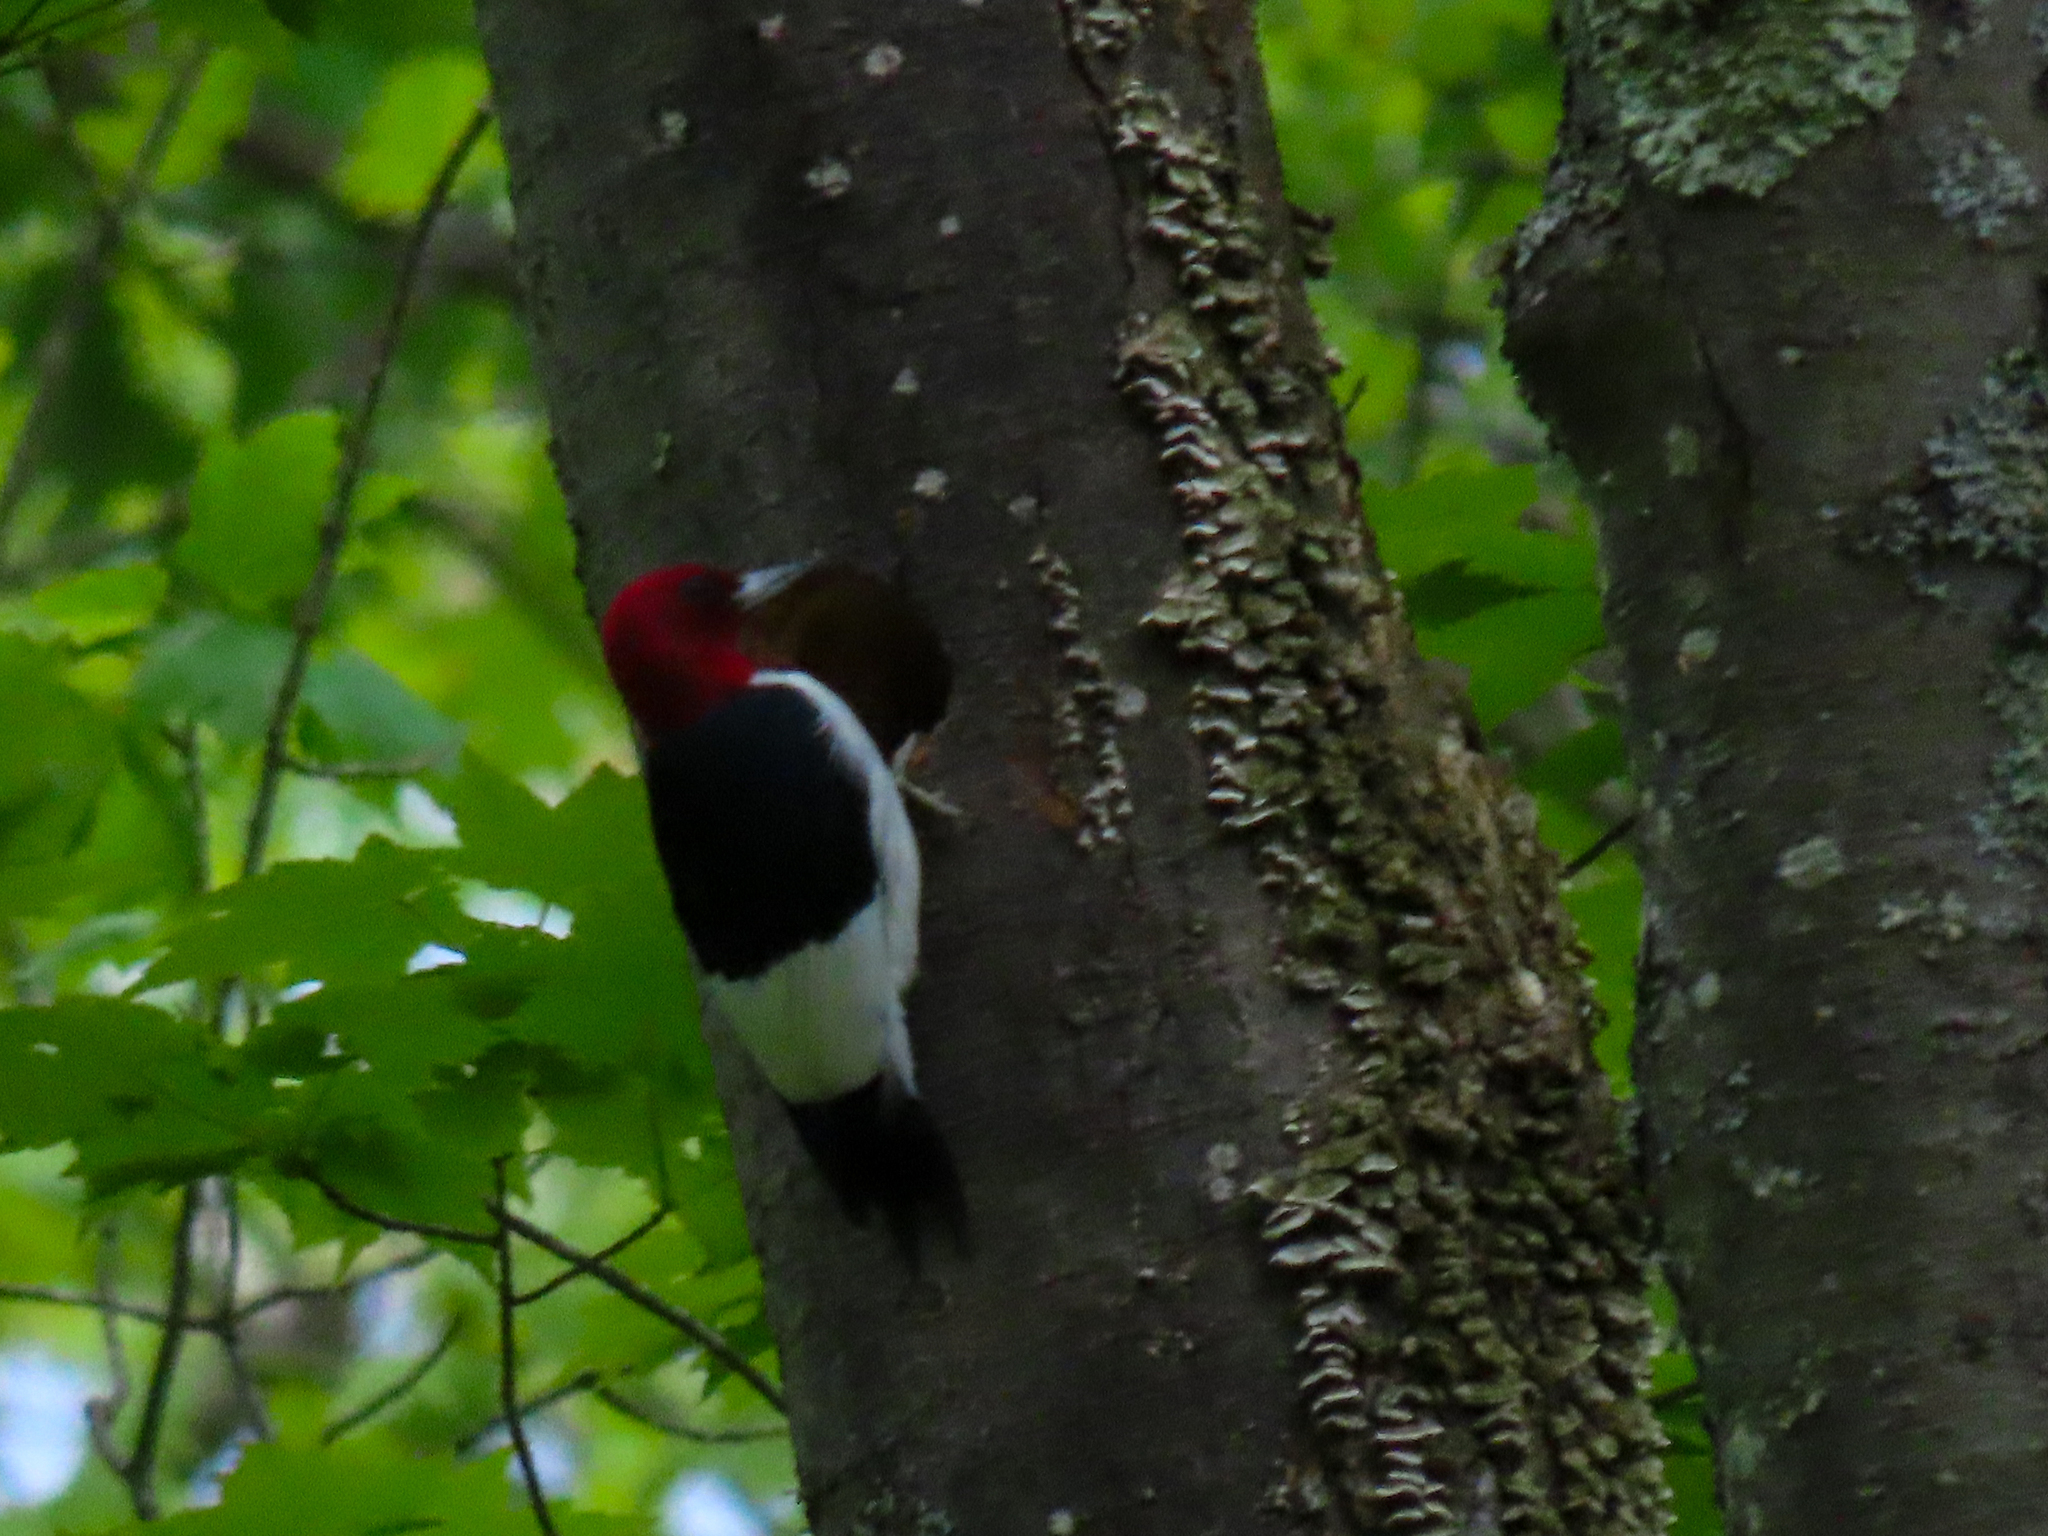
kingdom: Animalia
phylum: Chordata
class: Aves
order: Piciformes
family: Picidae
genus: Melanerpes
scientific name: Melanerpes erythrocephalus
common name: Red-headed woodpecker
